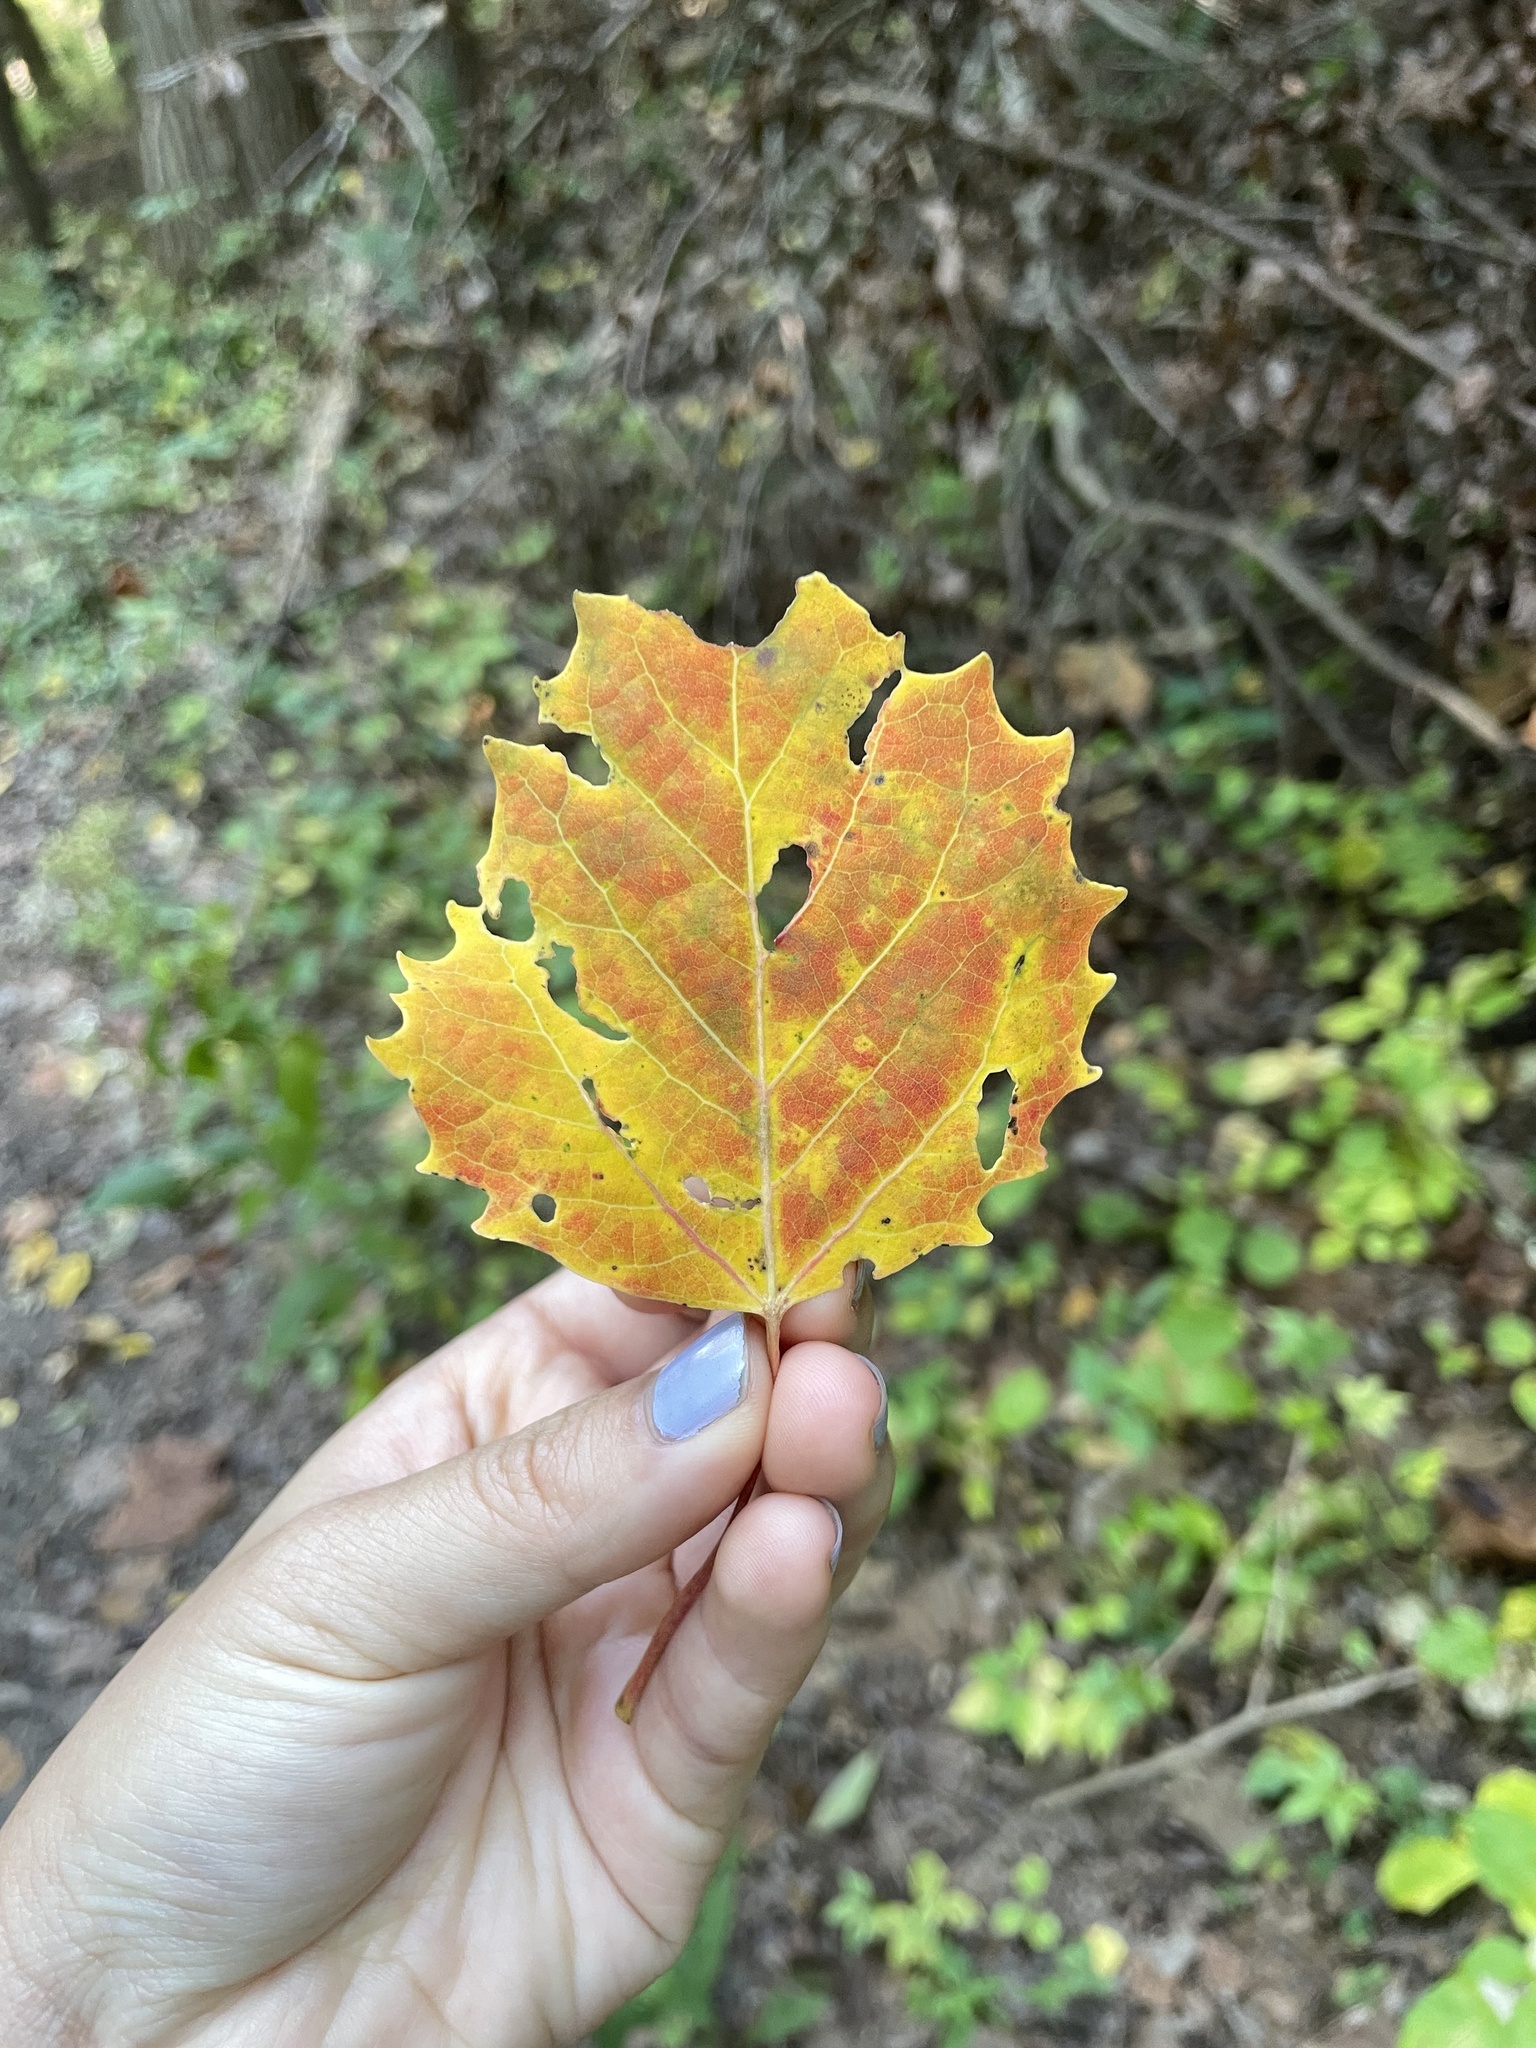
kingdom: Plantae
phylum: Tracheophyta
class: Magnoliopsida
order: Malpighiales
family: Salicaceae
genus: Populus
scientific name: Populus grandidentata
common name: Bigtooth aspen
